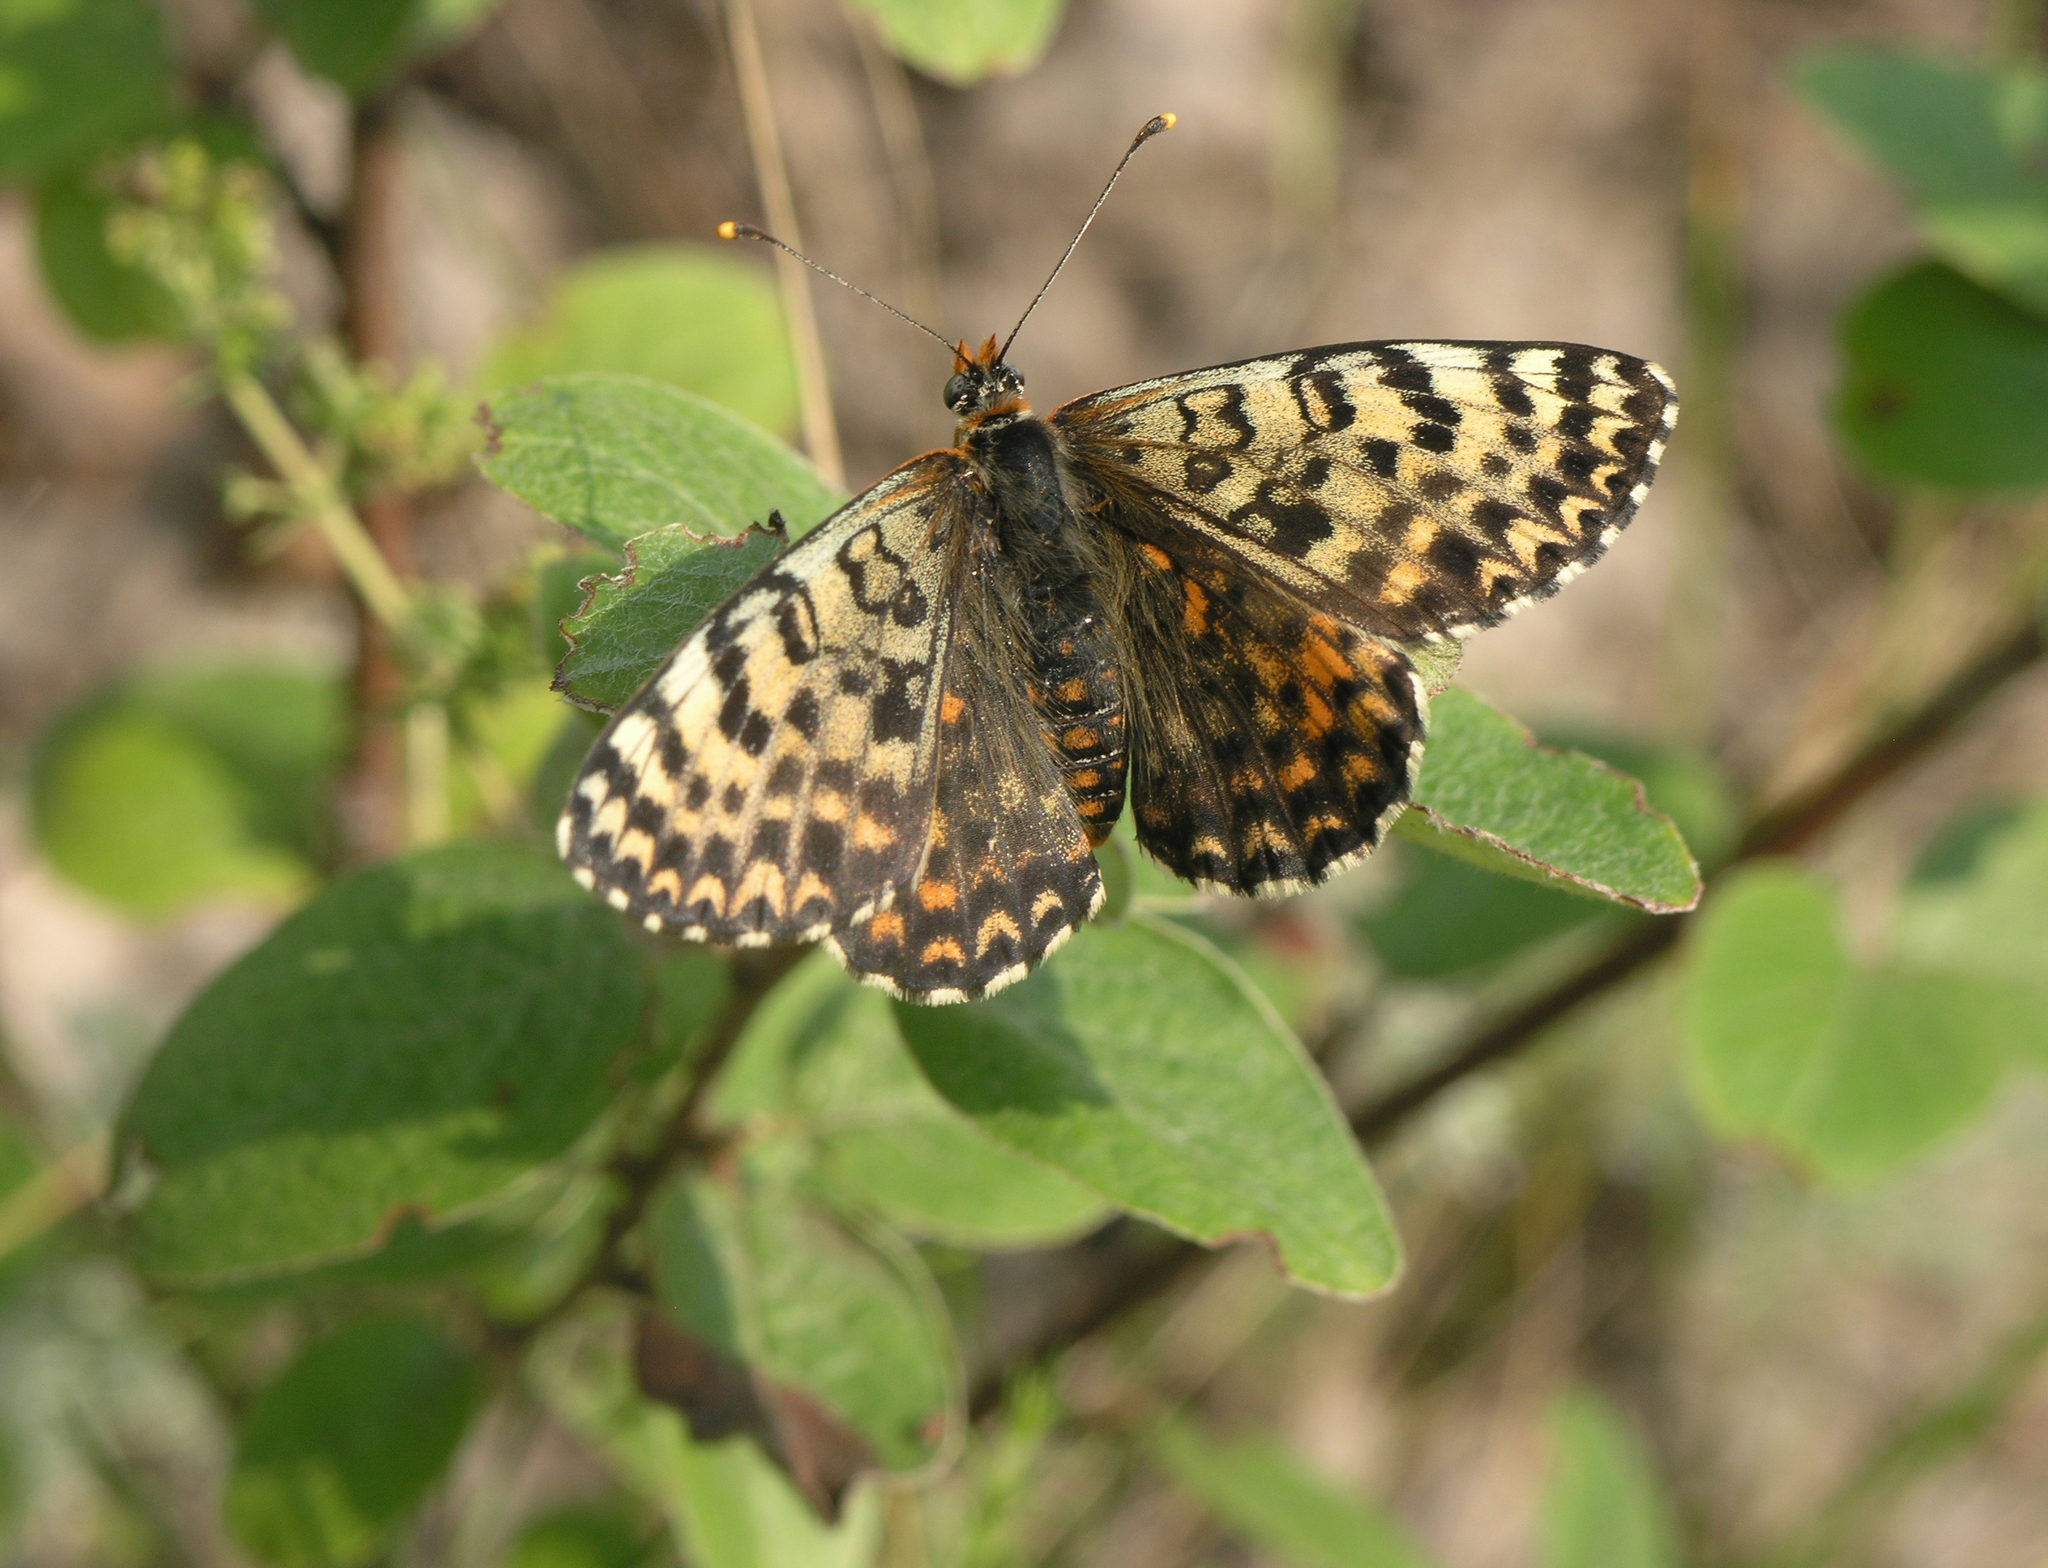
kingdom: Animalia
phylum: Arthropoda
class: Insecta
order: Lepidoptera
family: Nymphalidae
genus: Melitaea
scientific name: Melitaea didyma
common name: Spotted fritillary
